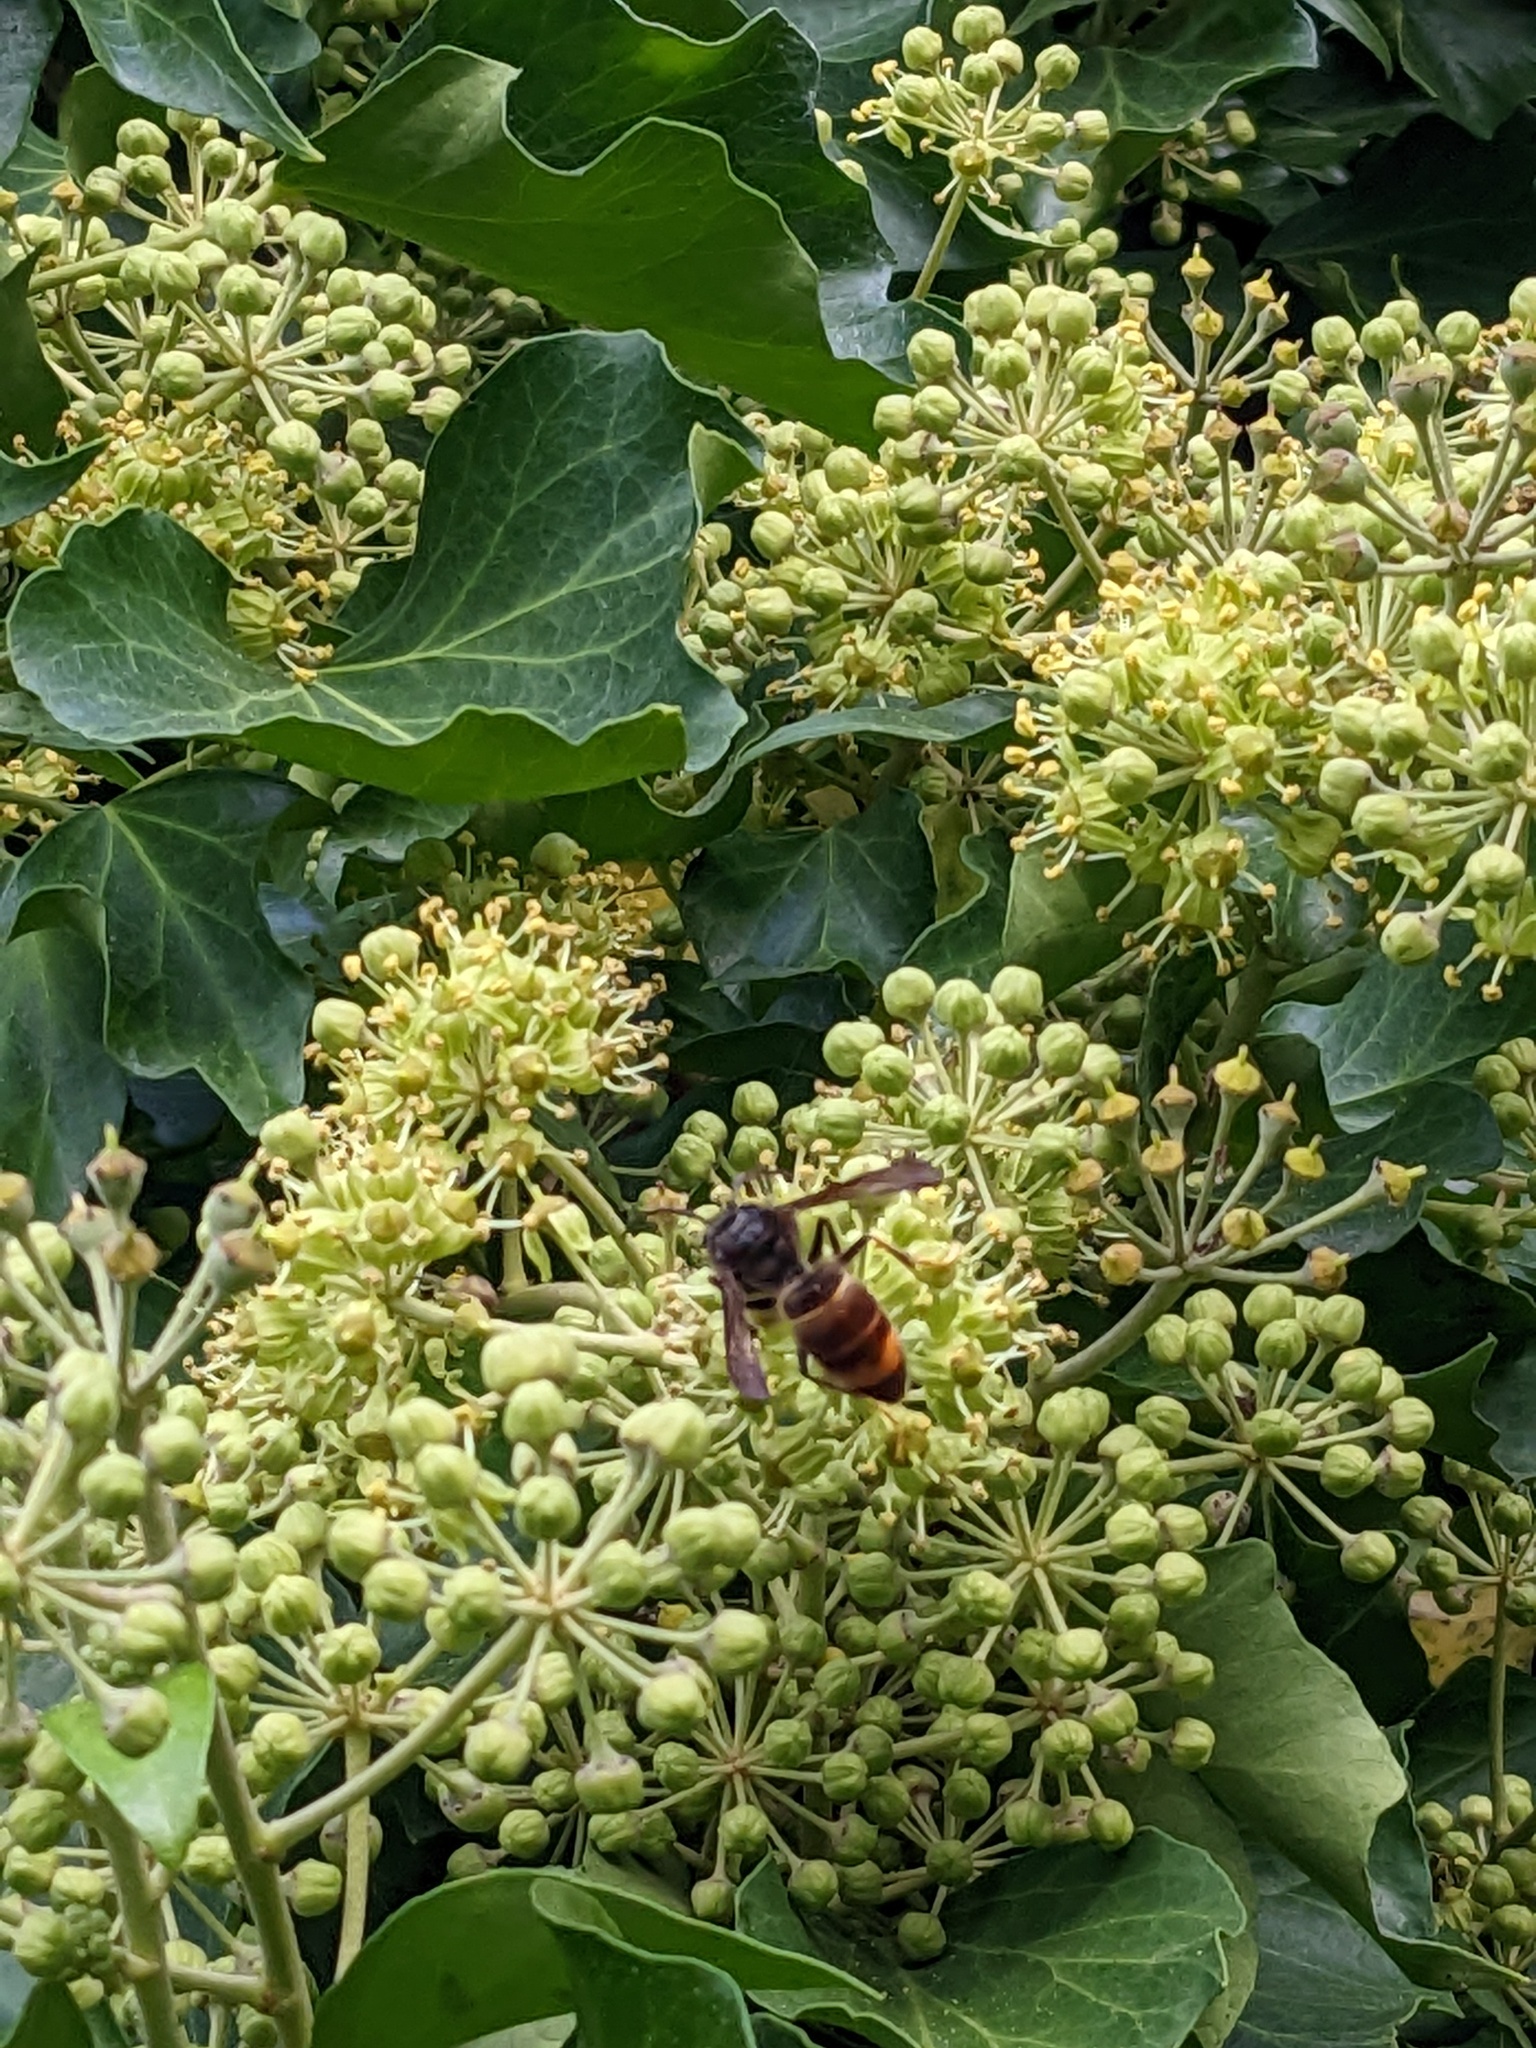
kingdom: Animalia
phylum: Arthropoda
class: Insecta
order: Hymenoptera
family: Vespidae
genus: Vespa
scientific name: Vespa velutina
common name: Asian hornet
